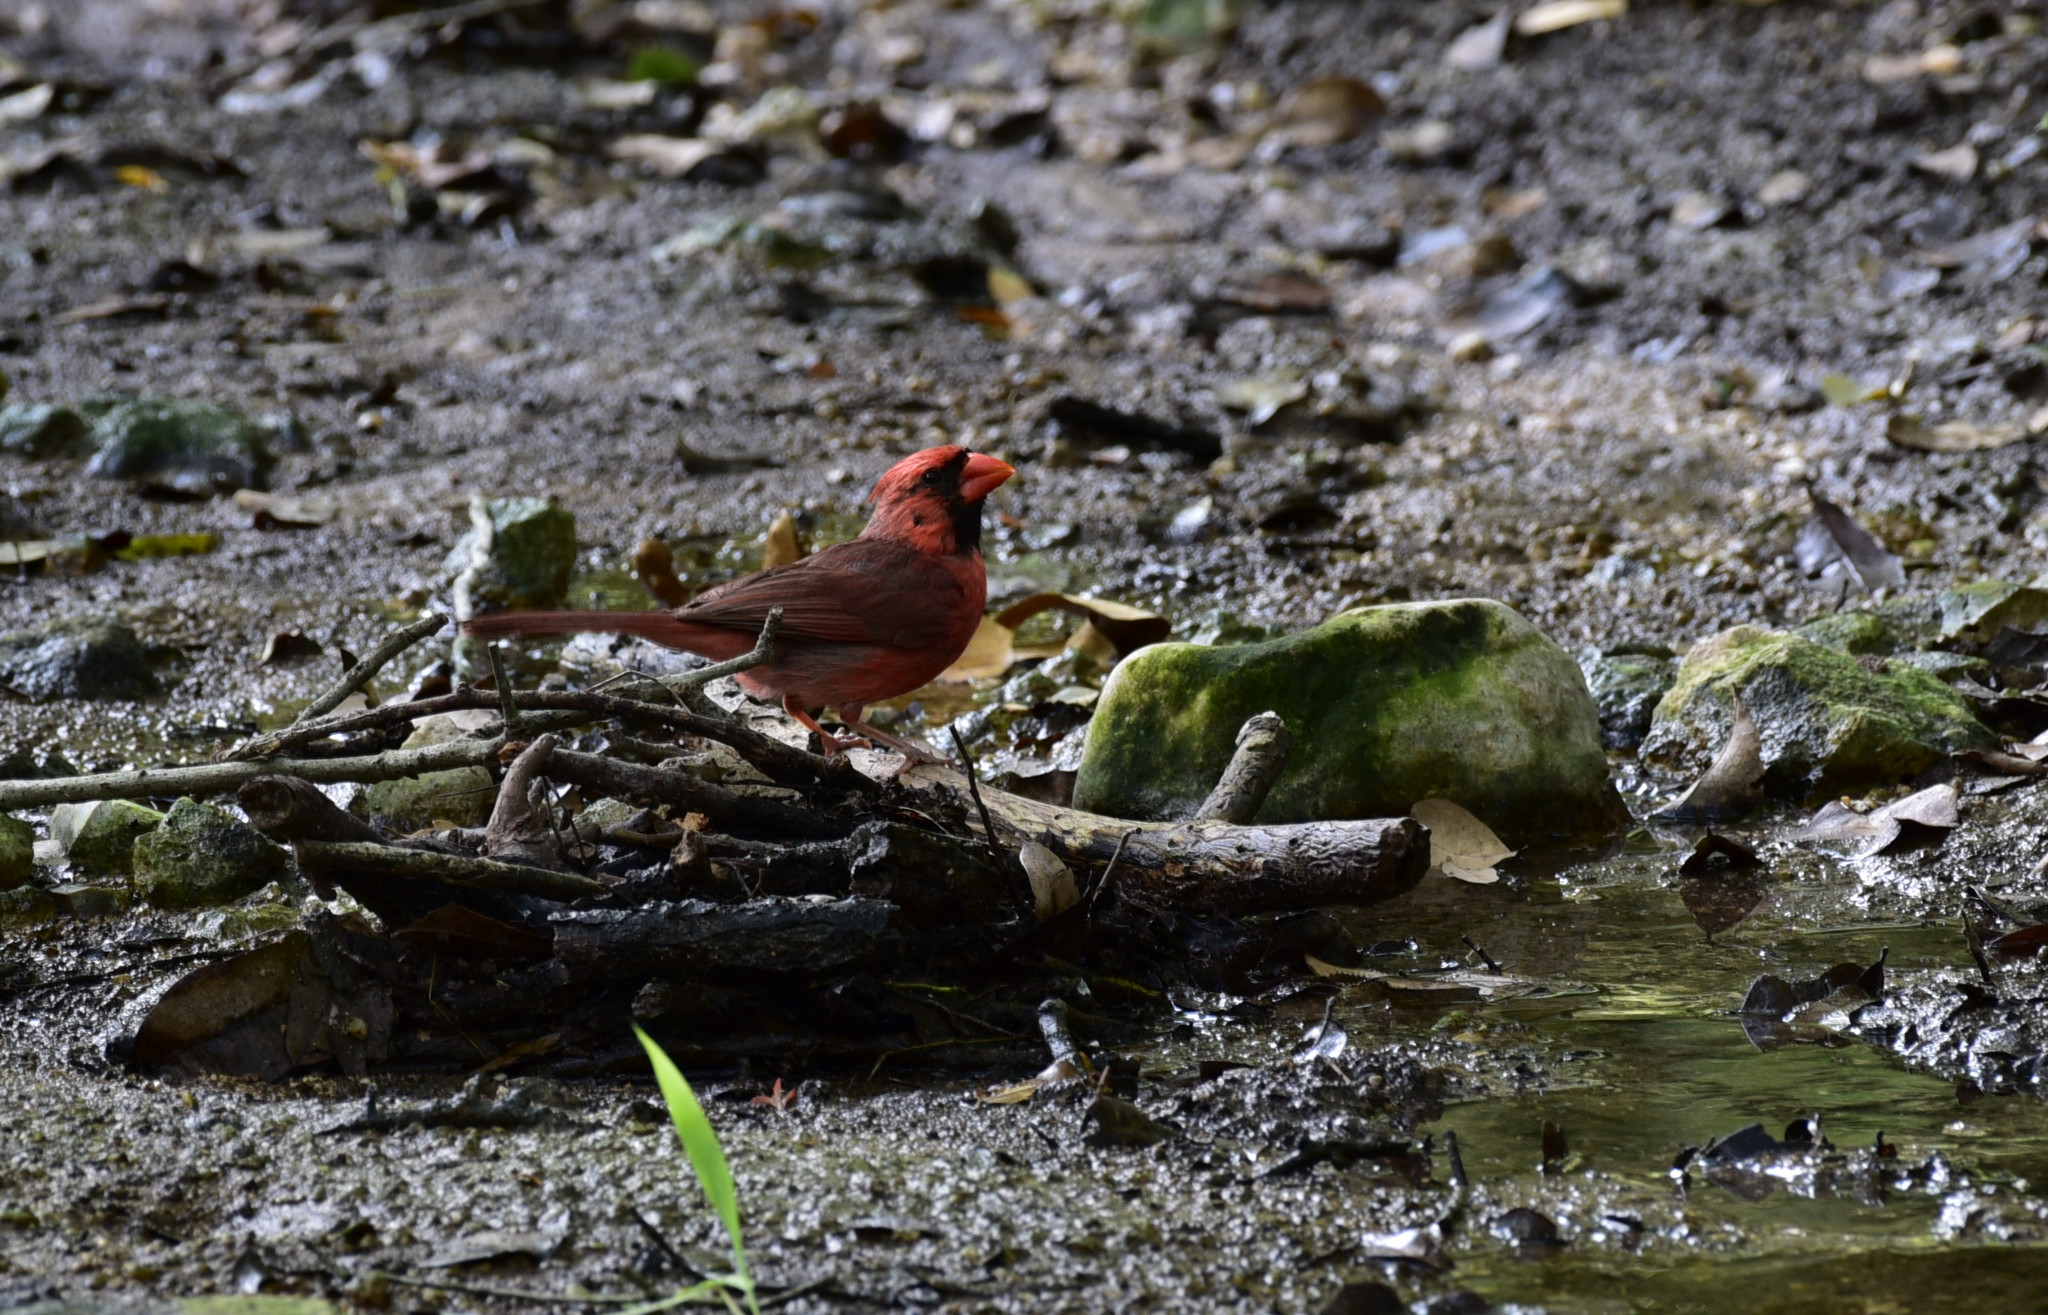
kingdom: Animalia
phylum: Chordata
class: Aves
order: Passeriformes
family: Cardinalidae
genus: Cardinalis
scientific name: Cardinalis cardinalis
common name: Northern cardinal
